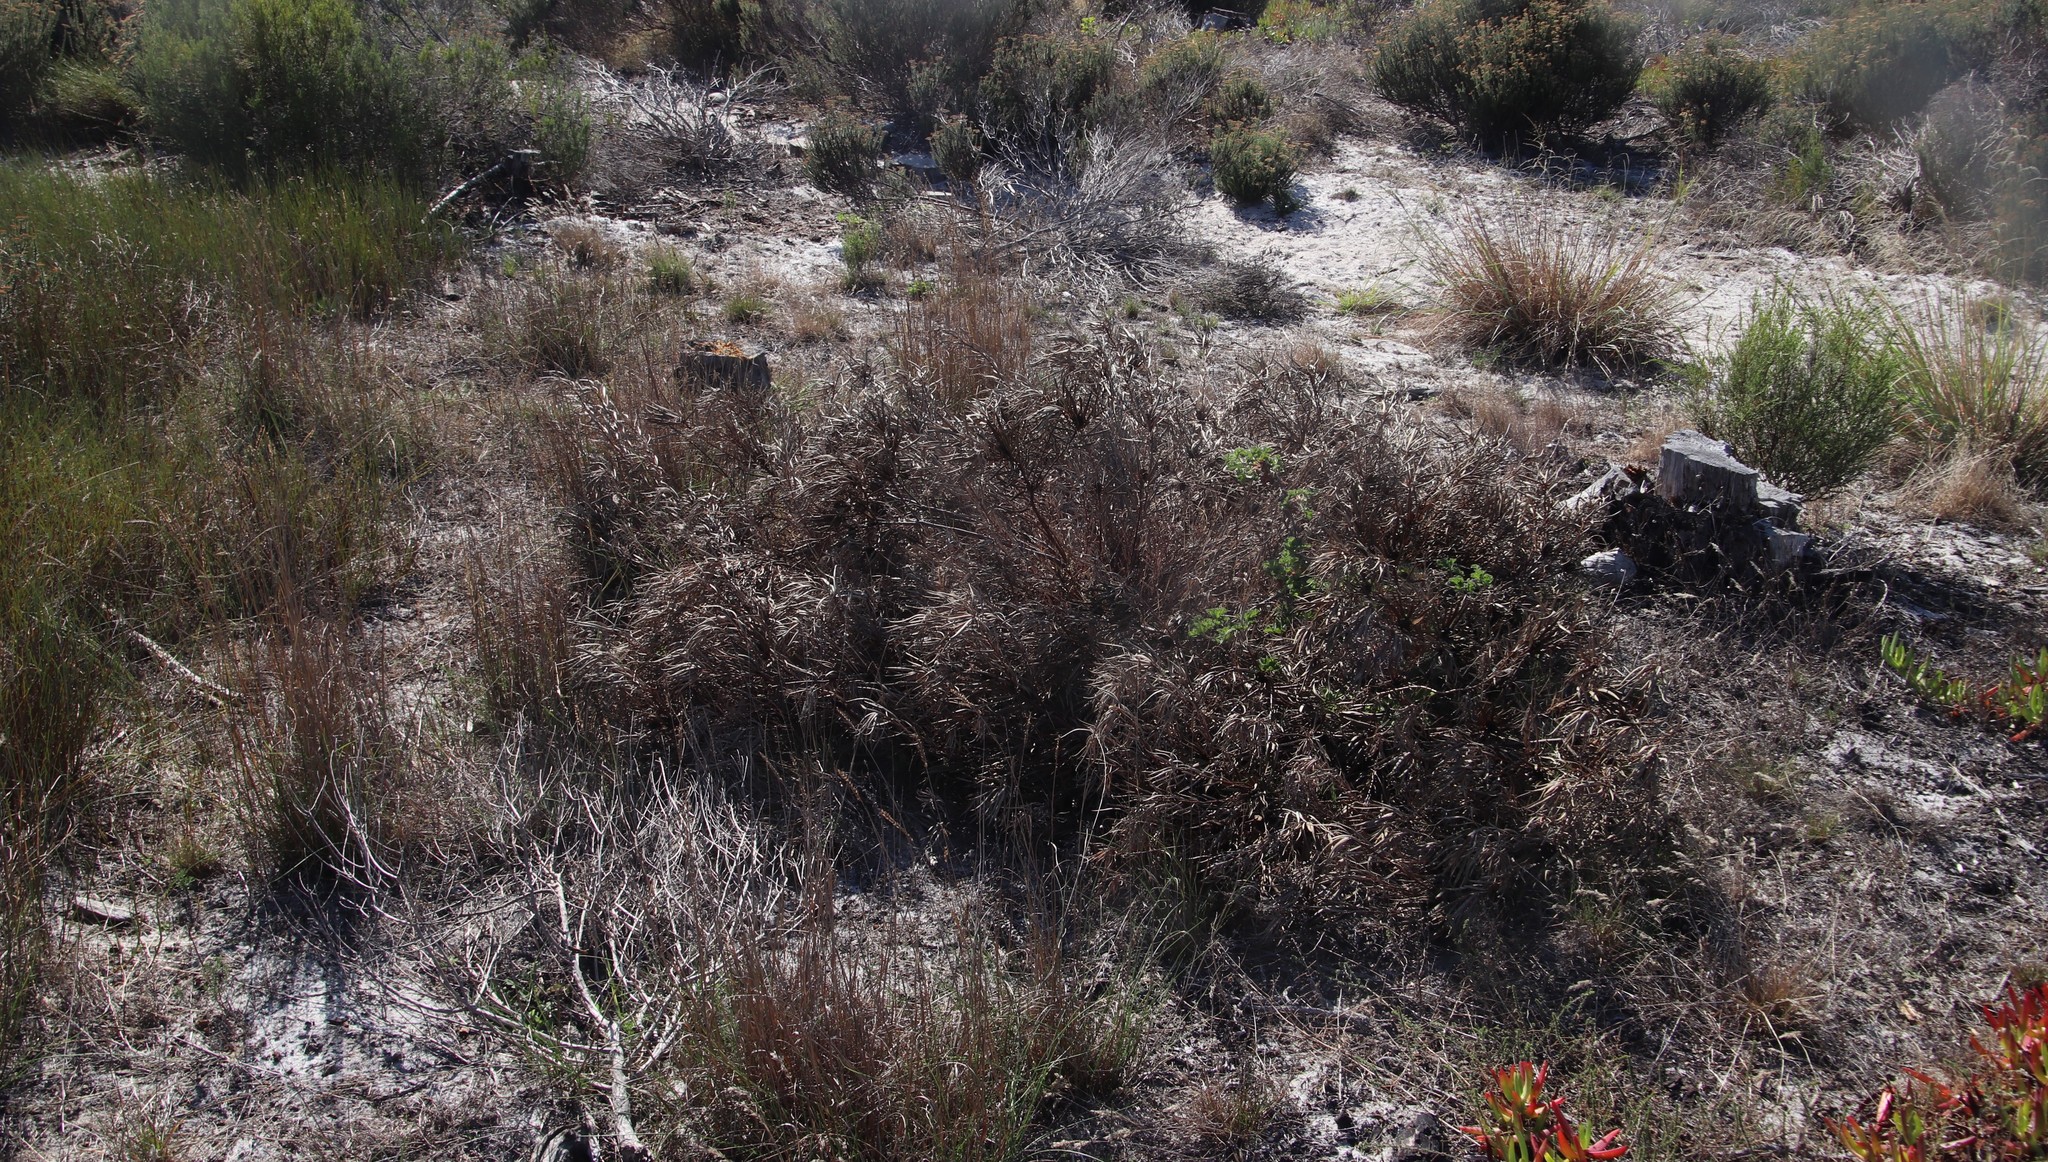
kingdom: Plantae
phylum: Tracheophyta
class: Magnoliopsida
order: Proteales
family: Proteaceae
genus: Leucadendron
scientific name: Leucadendron salignum
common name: Common sunshine conebush
